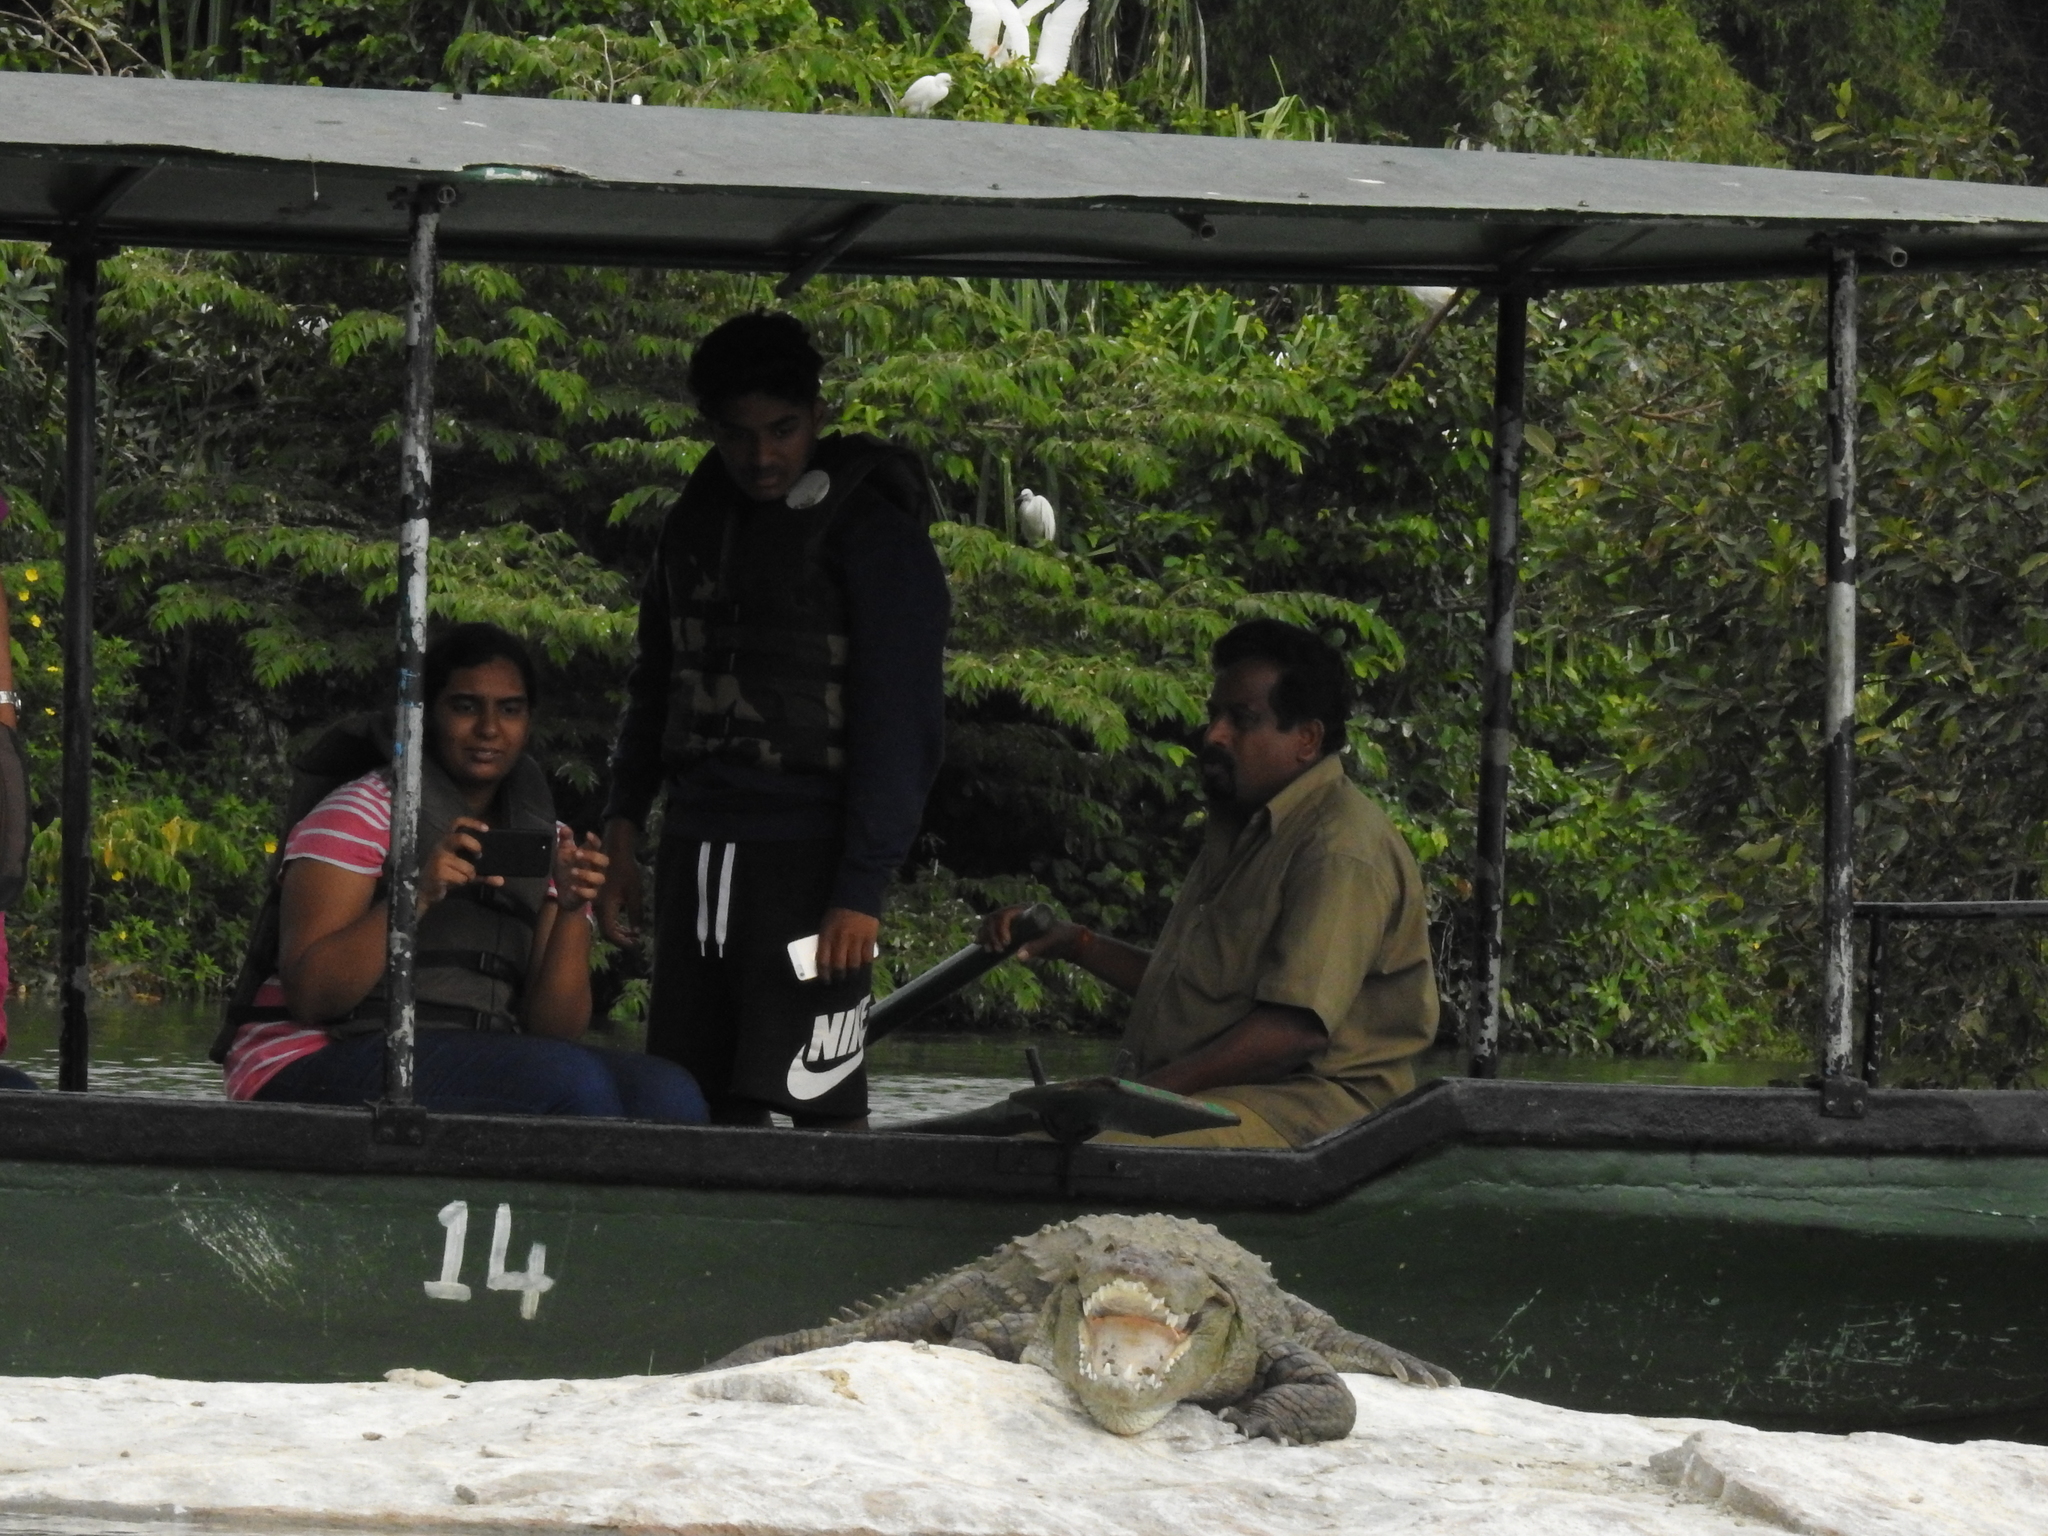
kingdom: Animalia
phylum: Chordata
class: Crocodylia
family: Crocodylidae
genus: Crocodylus
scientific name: Crocodylus palustris
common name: Mugger crocodile
